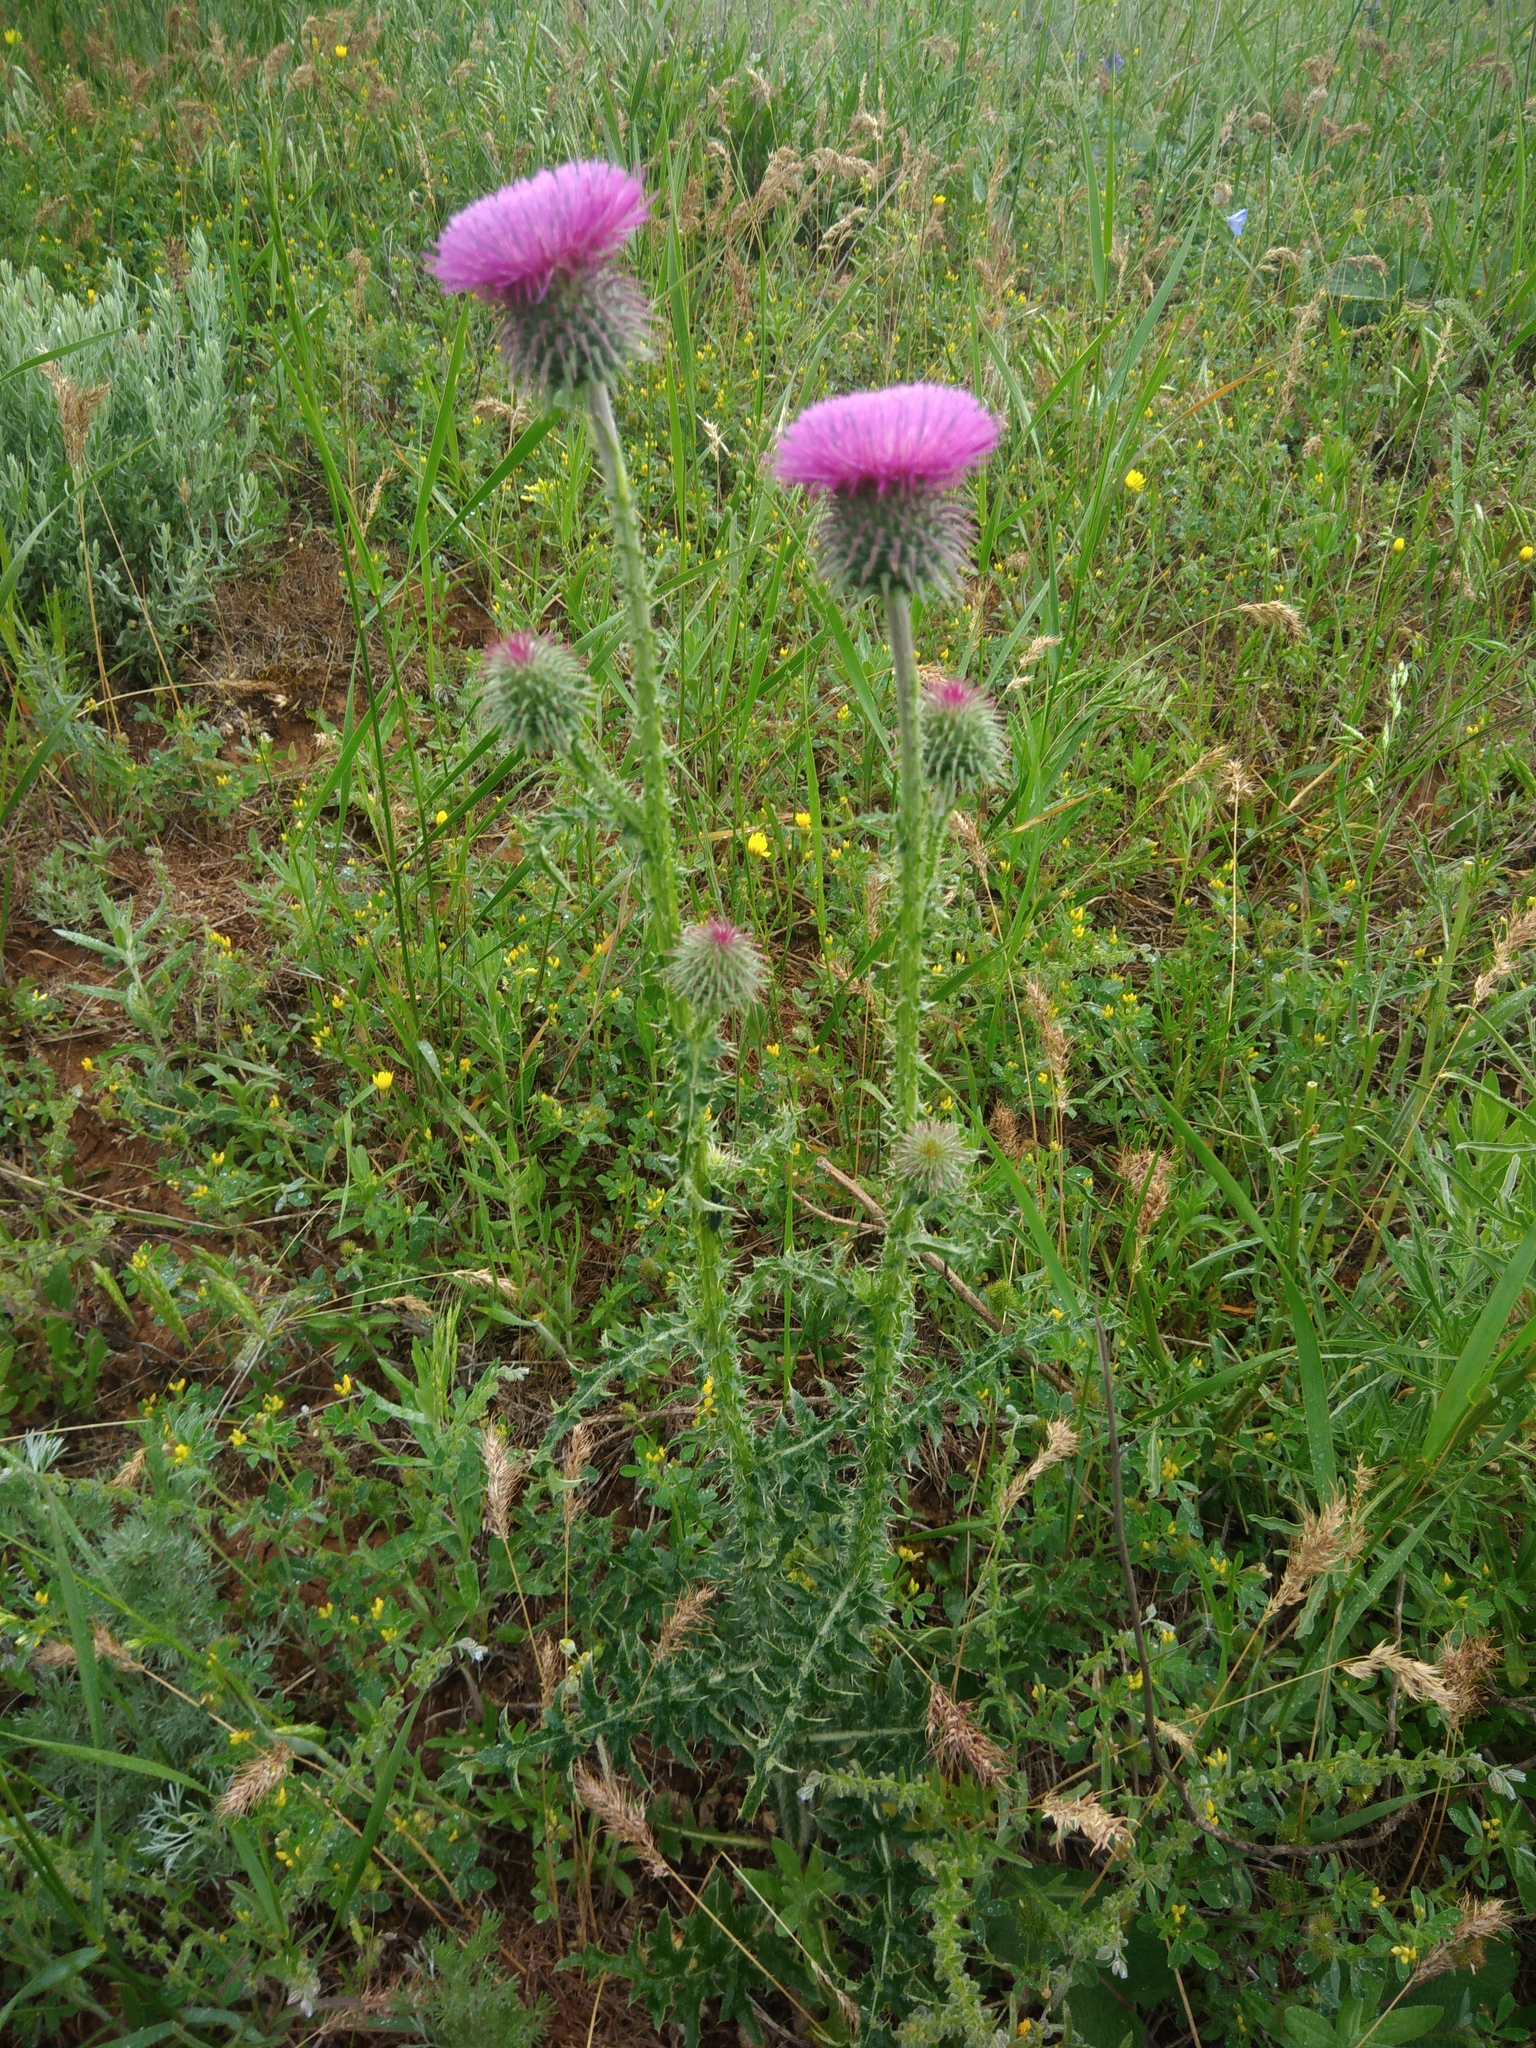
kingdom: Plantae
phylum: Tracheophyta
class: Magnoliopsida
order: Asterales
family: Asteraceae
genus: Carduus
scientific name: Carduus uncinatus
